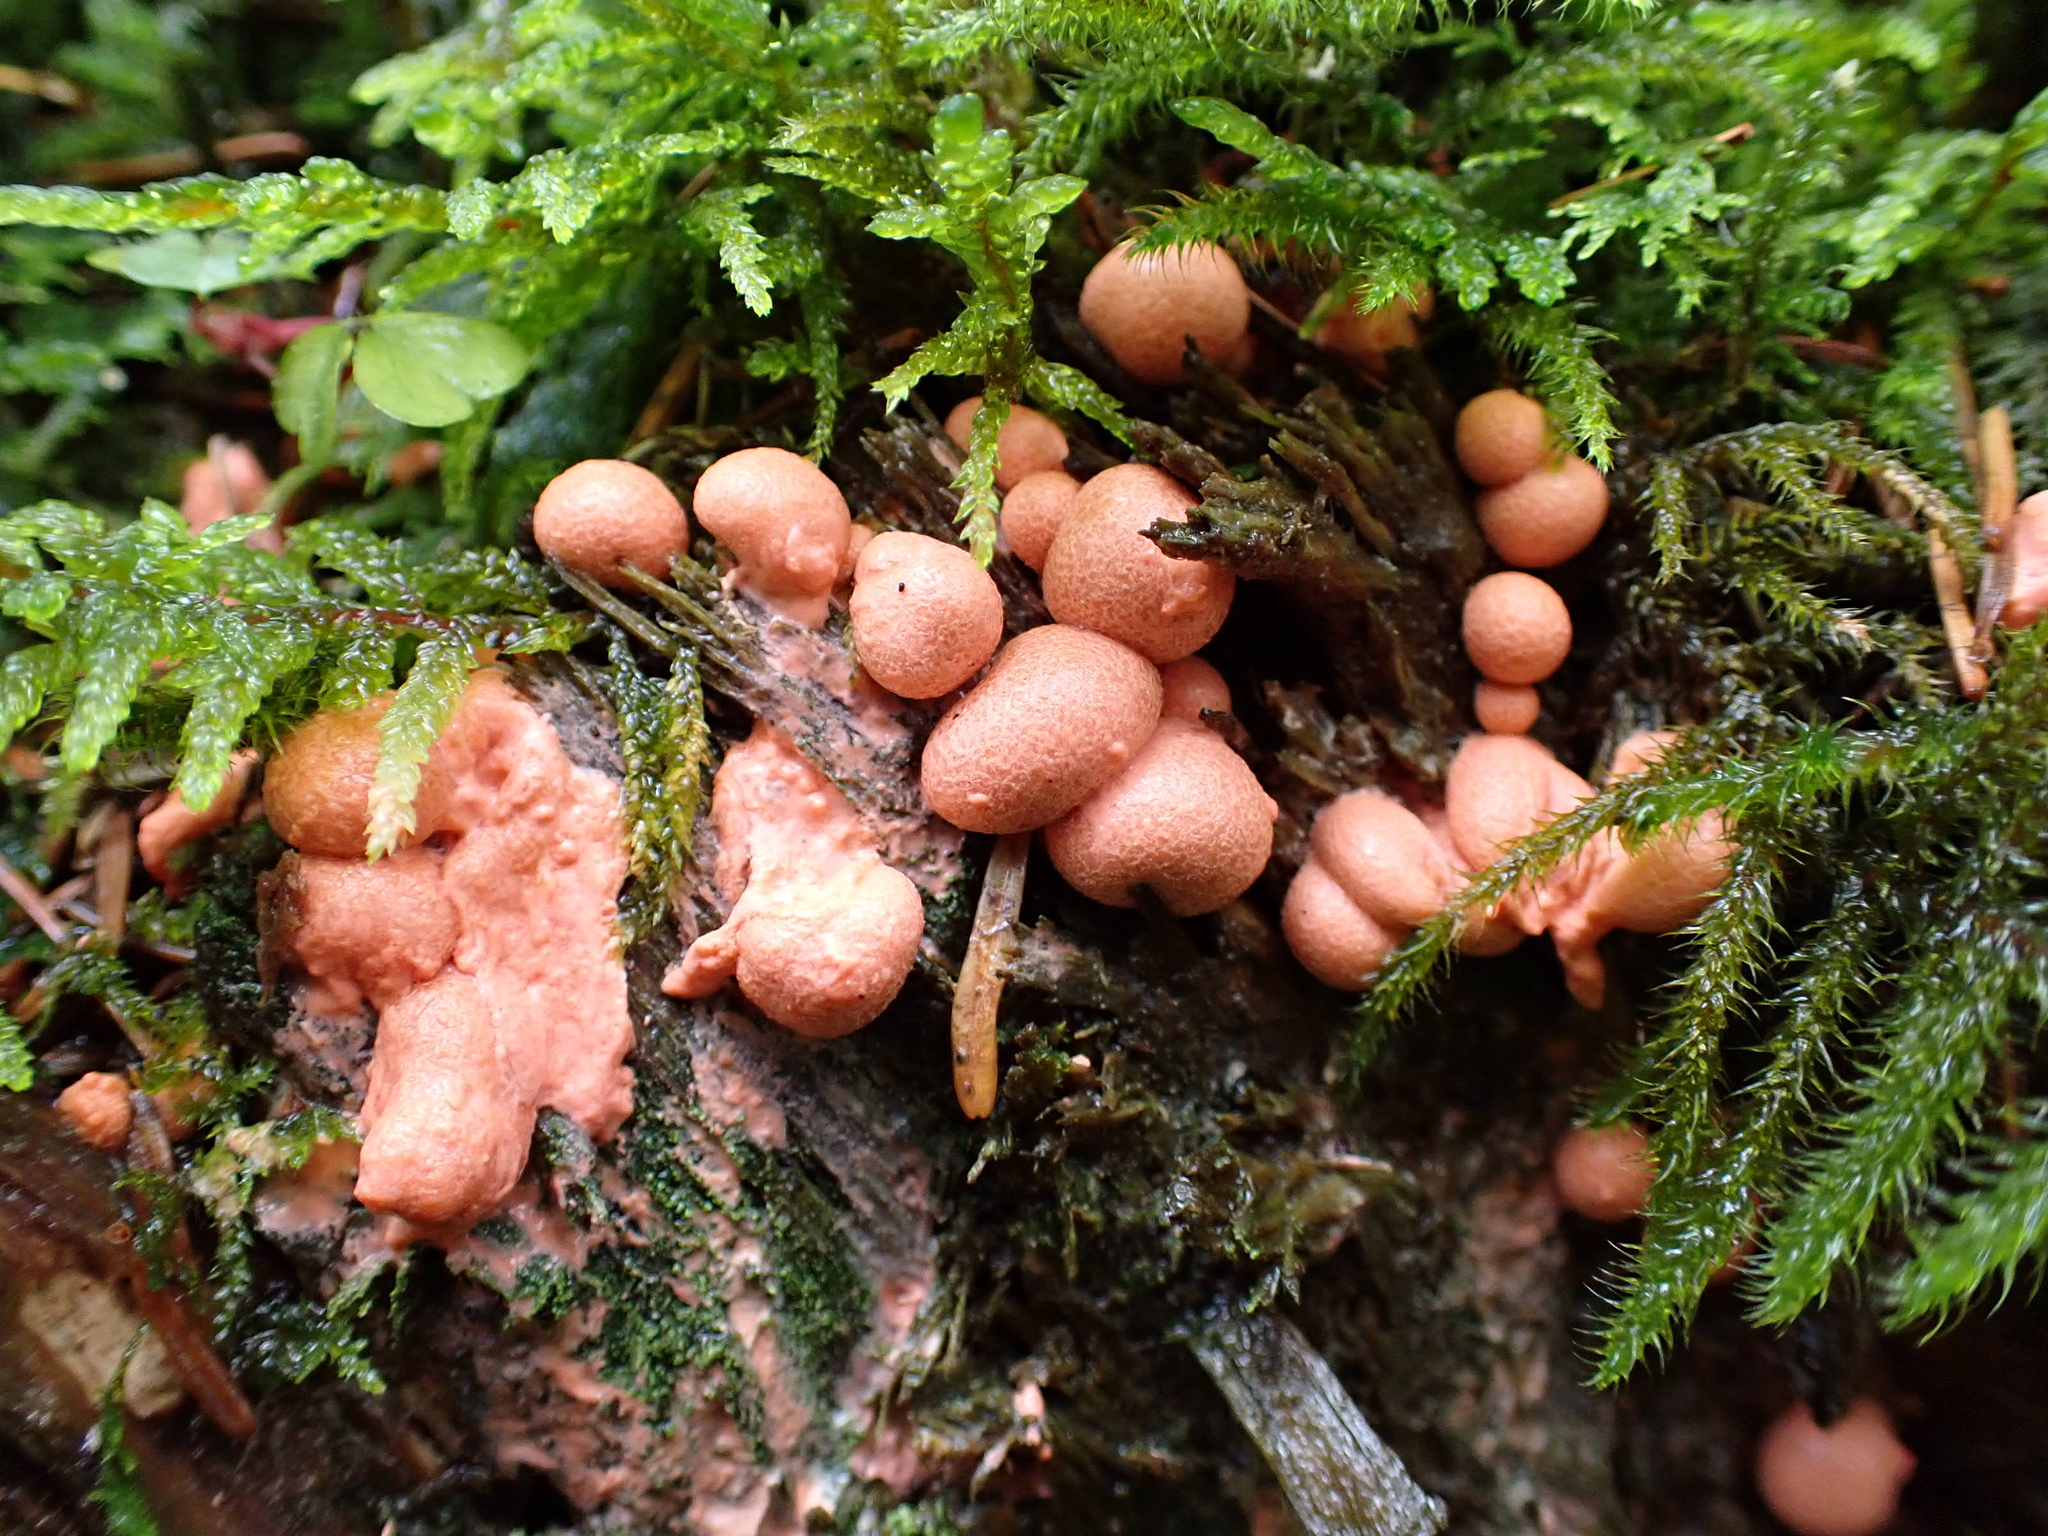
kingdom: Protozoa
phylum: Mycetozoa
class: Myxomycetes
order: Cribrariales
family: Tubiferaceae
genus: Lycogala
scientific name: Lycogala epidendrum
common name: Wolf's milk
